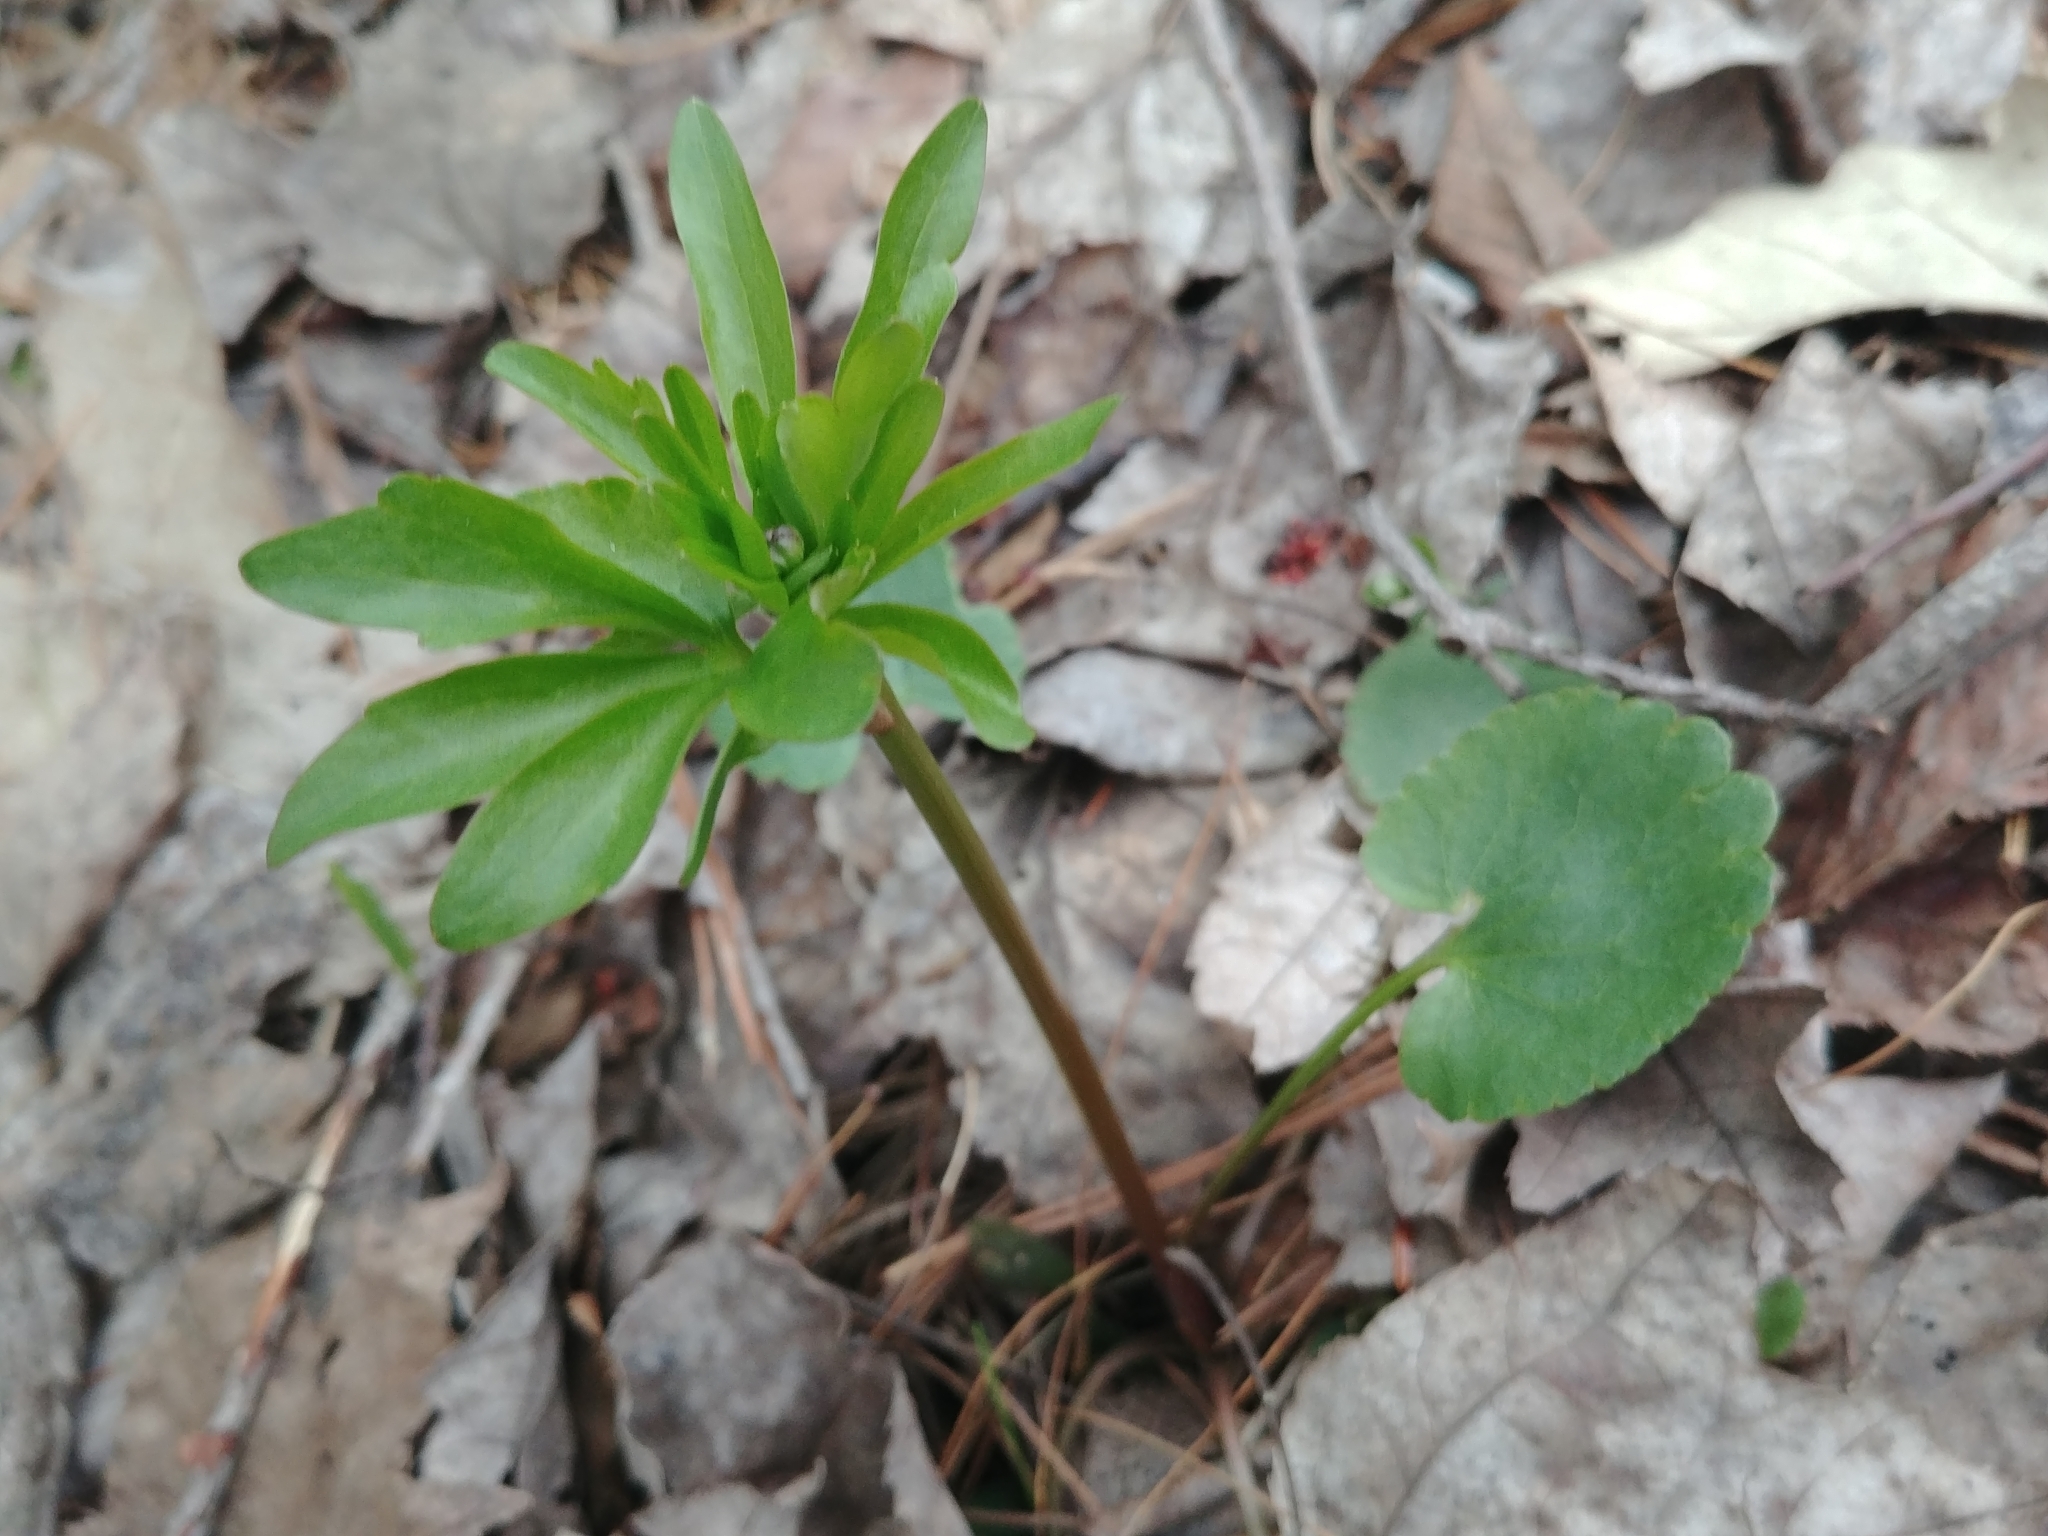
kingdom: Plantae
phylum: Tracheophyta
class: Magnoliopsida
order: Ranunculales
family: Ranunculaceae
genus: Ranunculus
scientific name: Ranunculus abortivus
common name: Early wood buttercup
